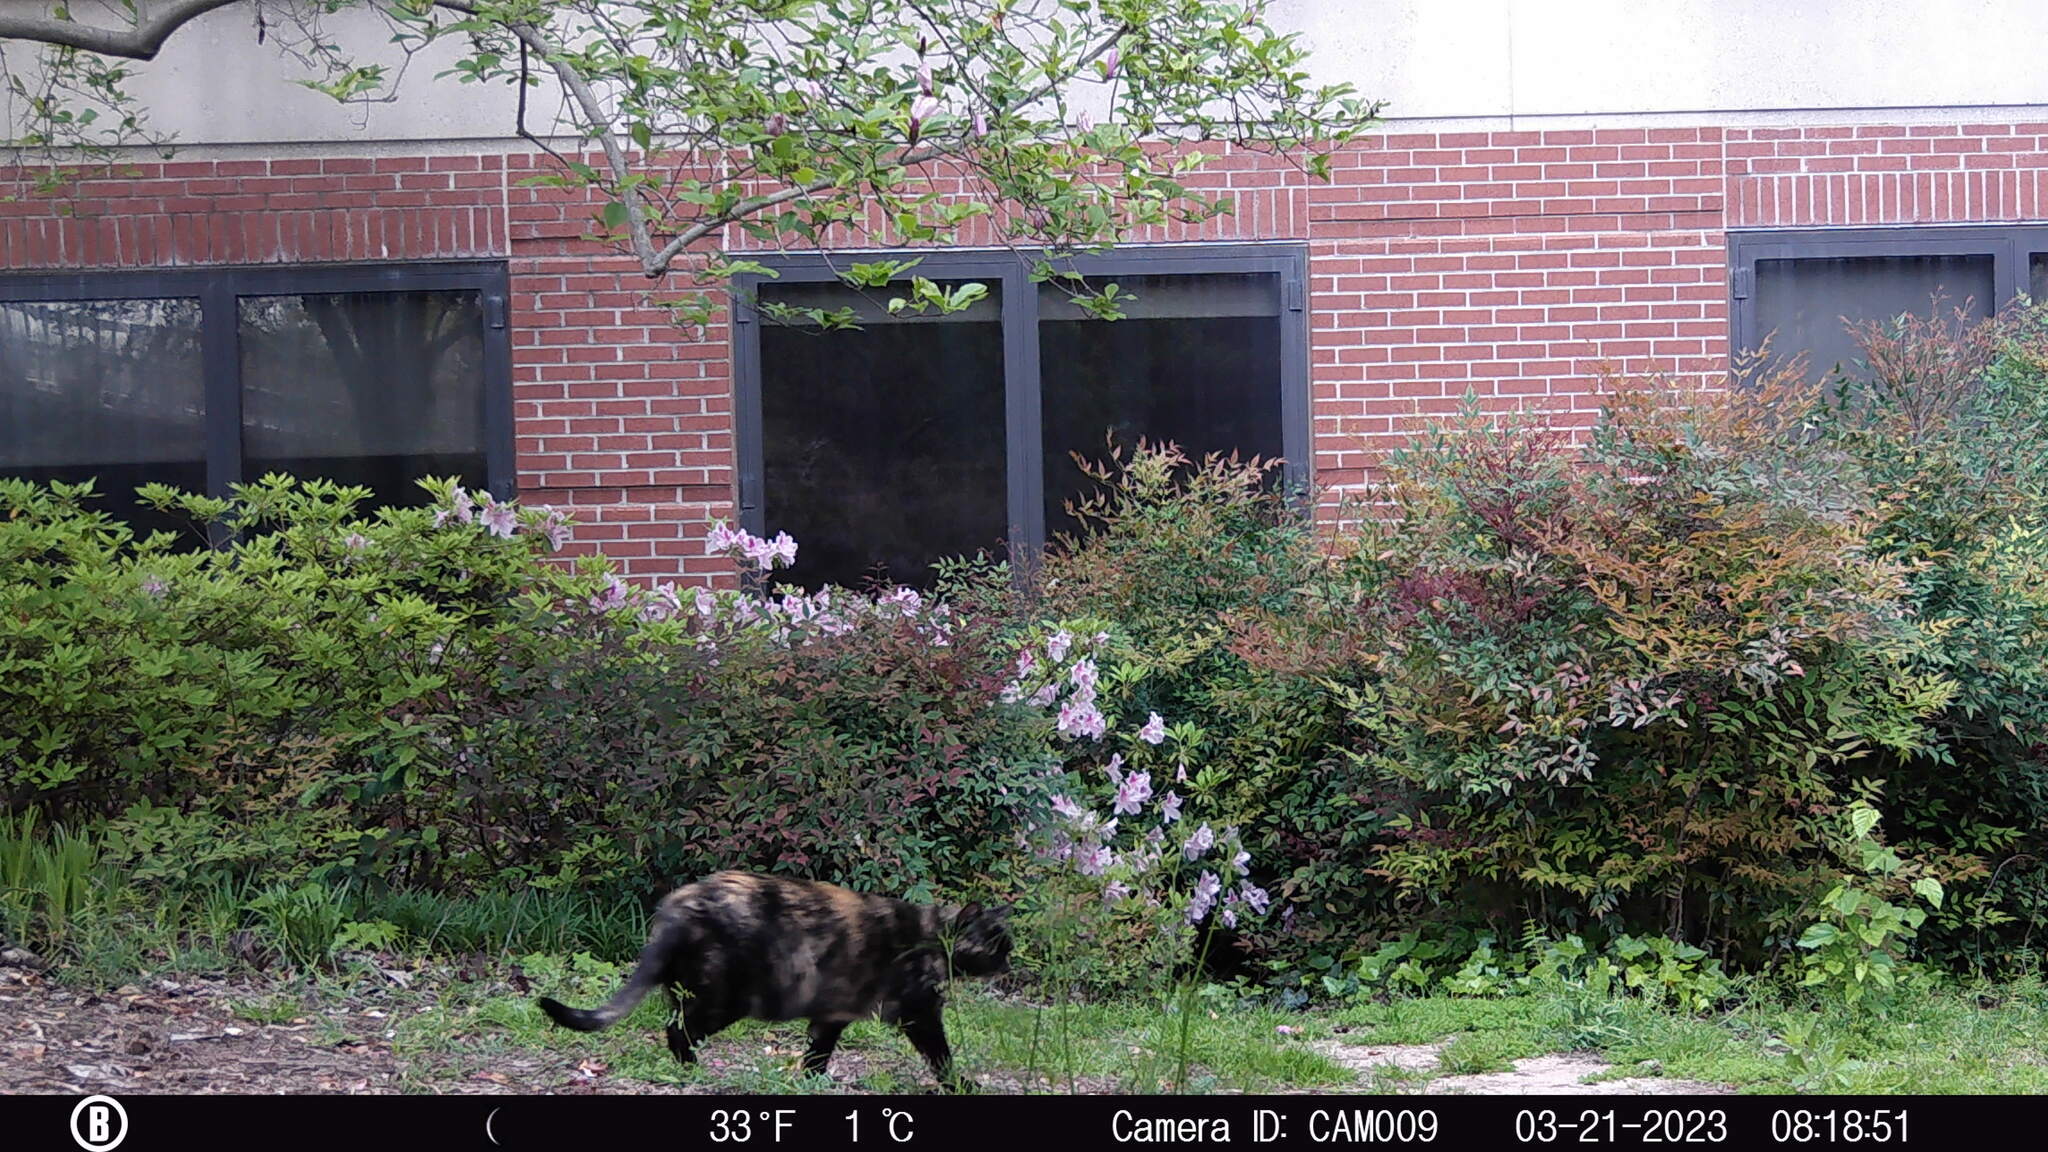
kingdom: Animalia
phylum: Chordata
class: Mammalia
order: Carnivora
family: Felidae
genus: Felis
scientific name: Felis catus
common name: Domestic cat
